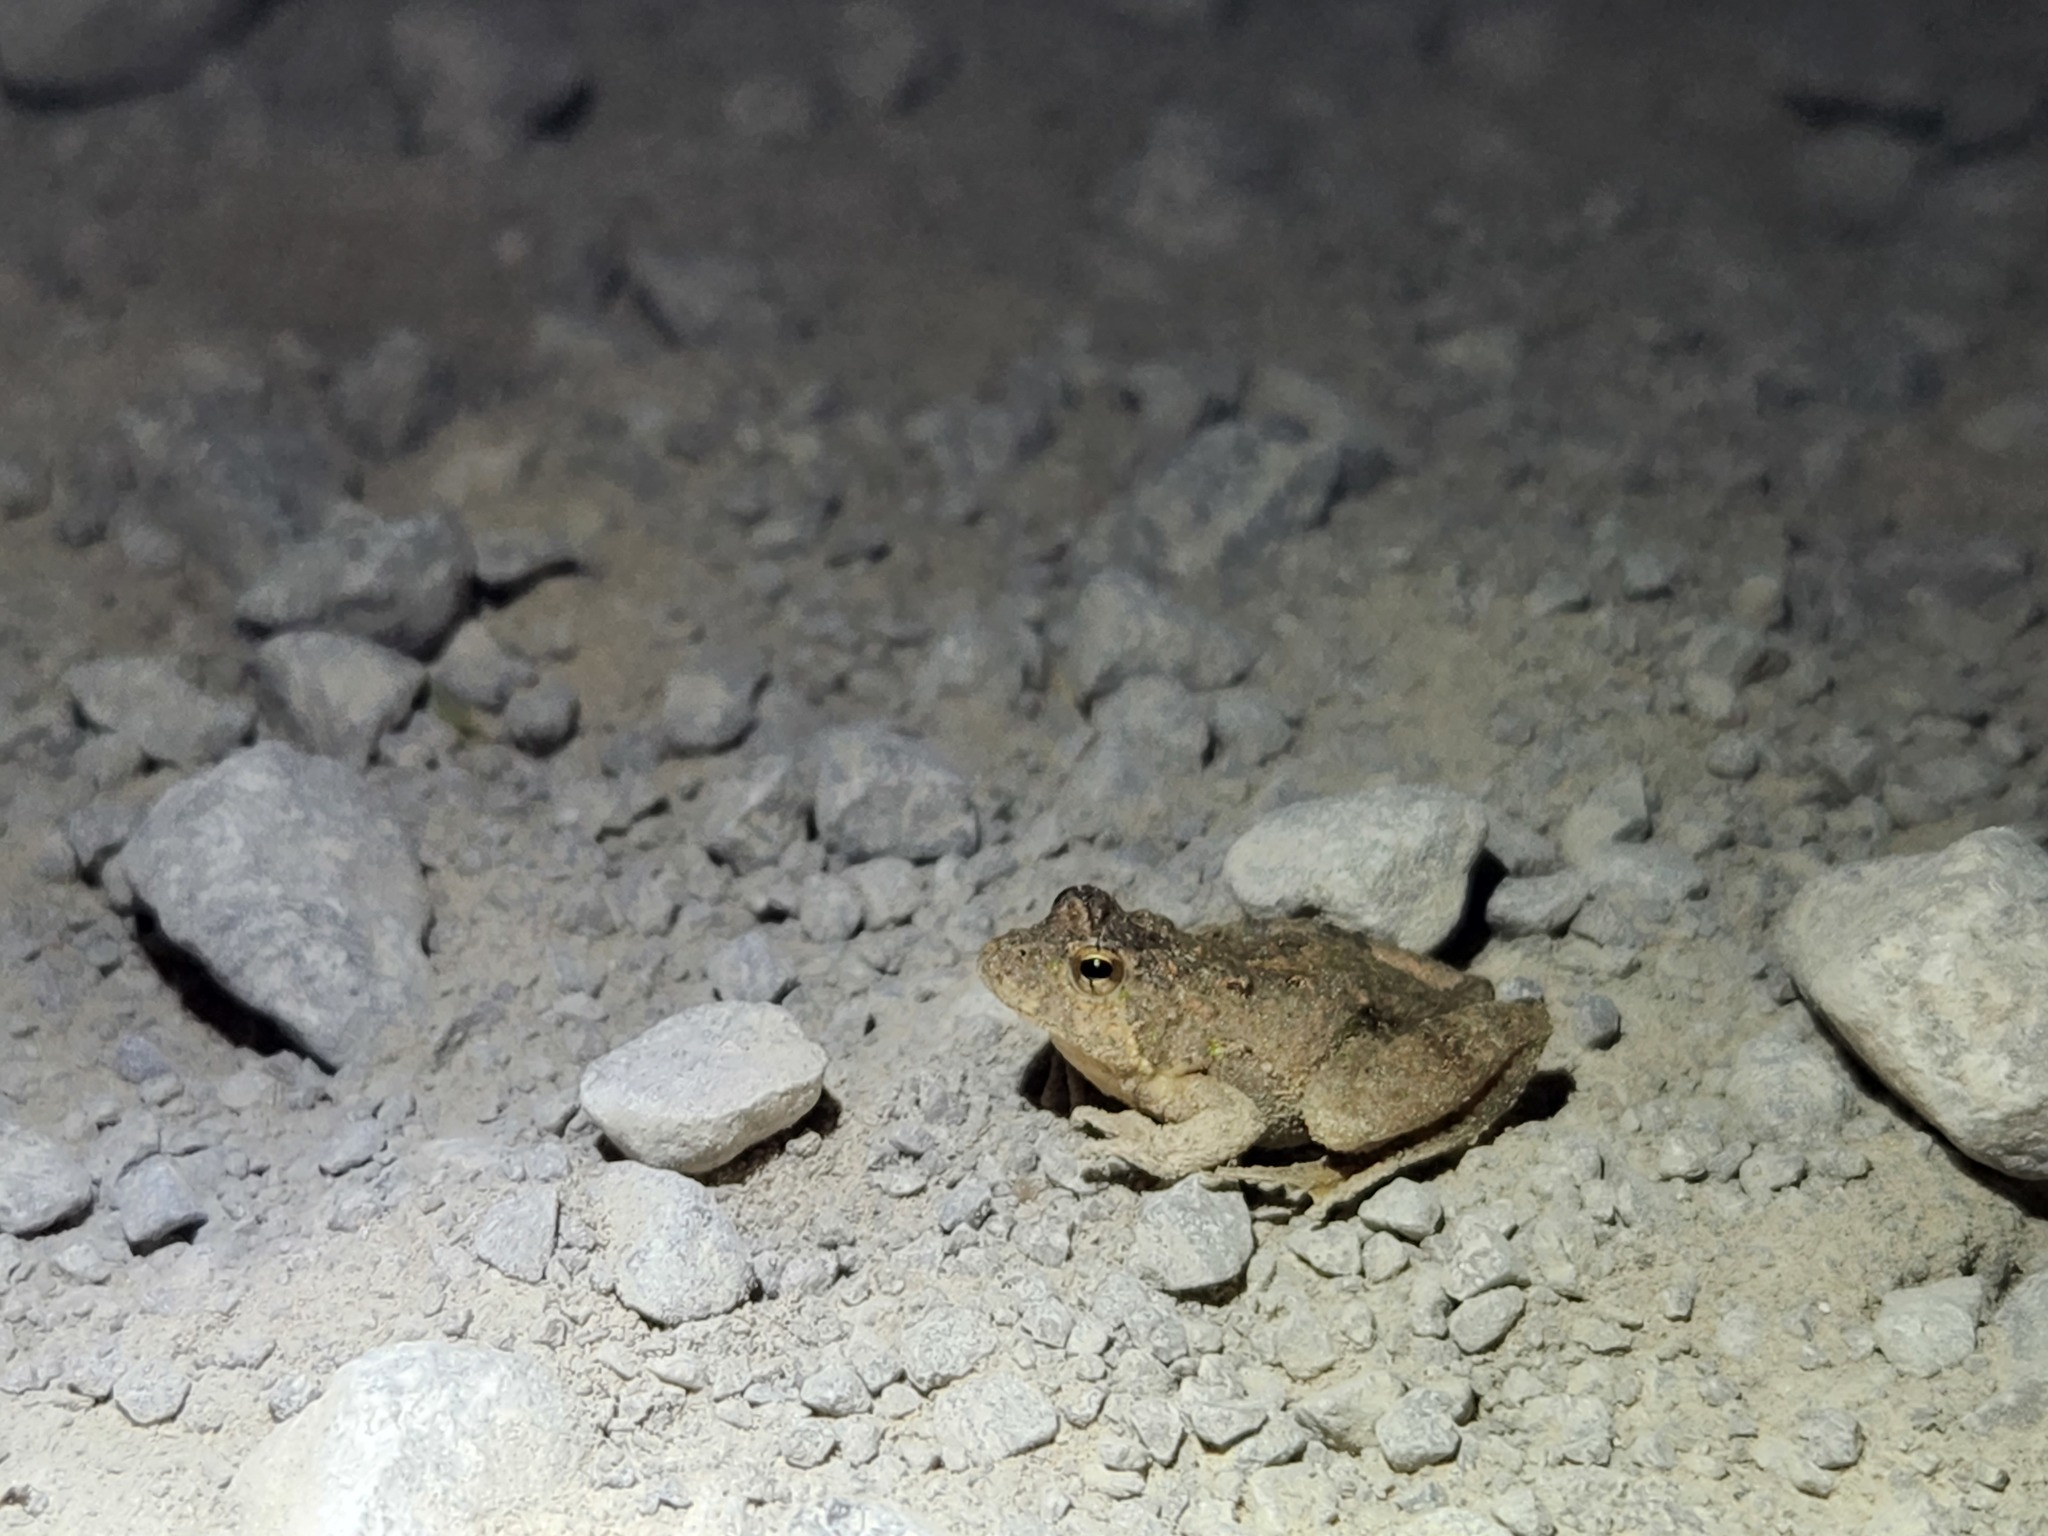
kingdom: Animalia
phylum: Chordata
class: Amphibia
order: Anura
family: Hylidae
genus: Acris
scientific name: Acris crepitans
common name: Northern cricket frog
